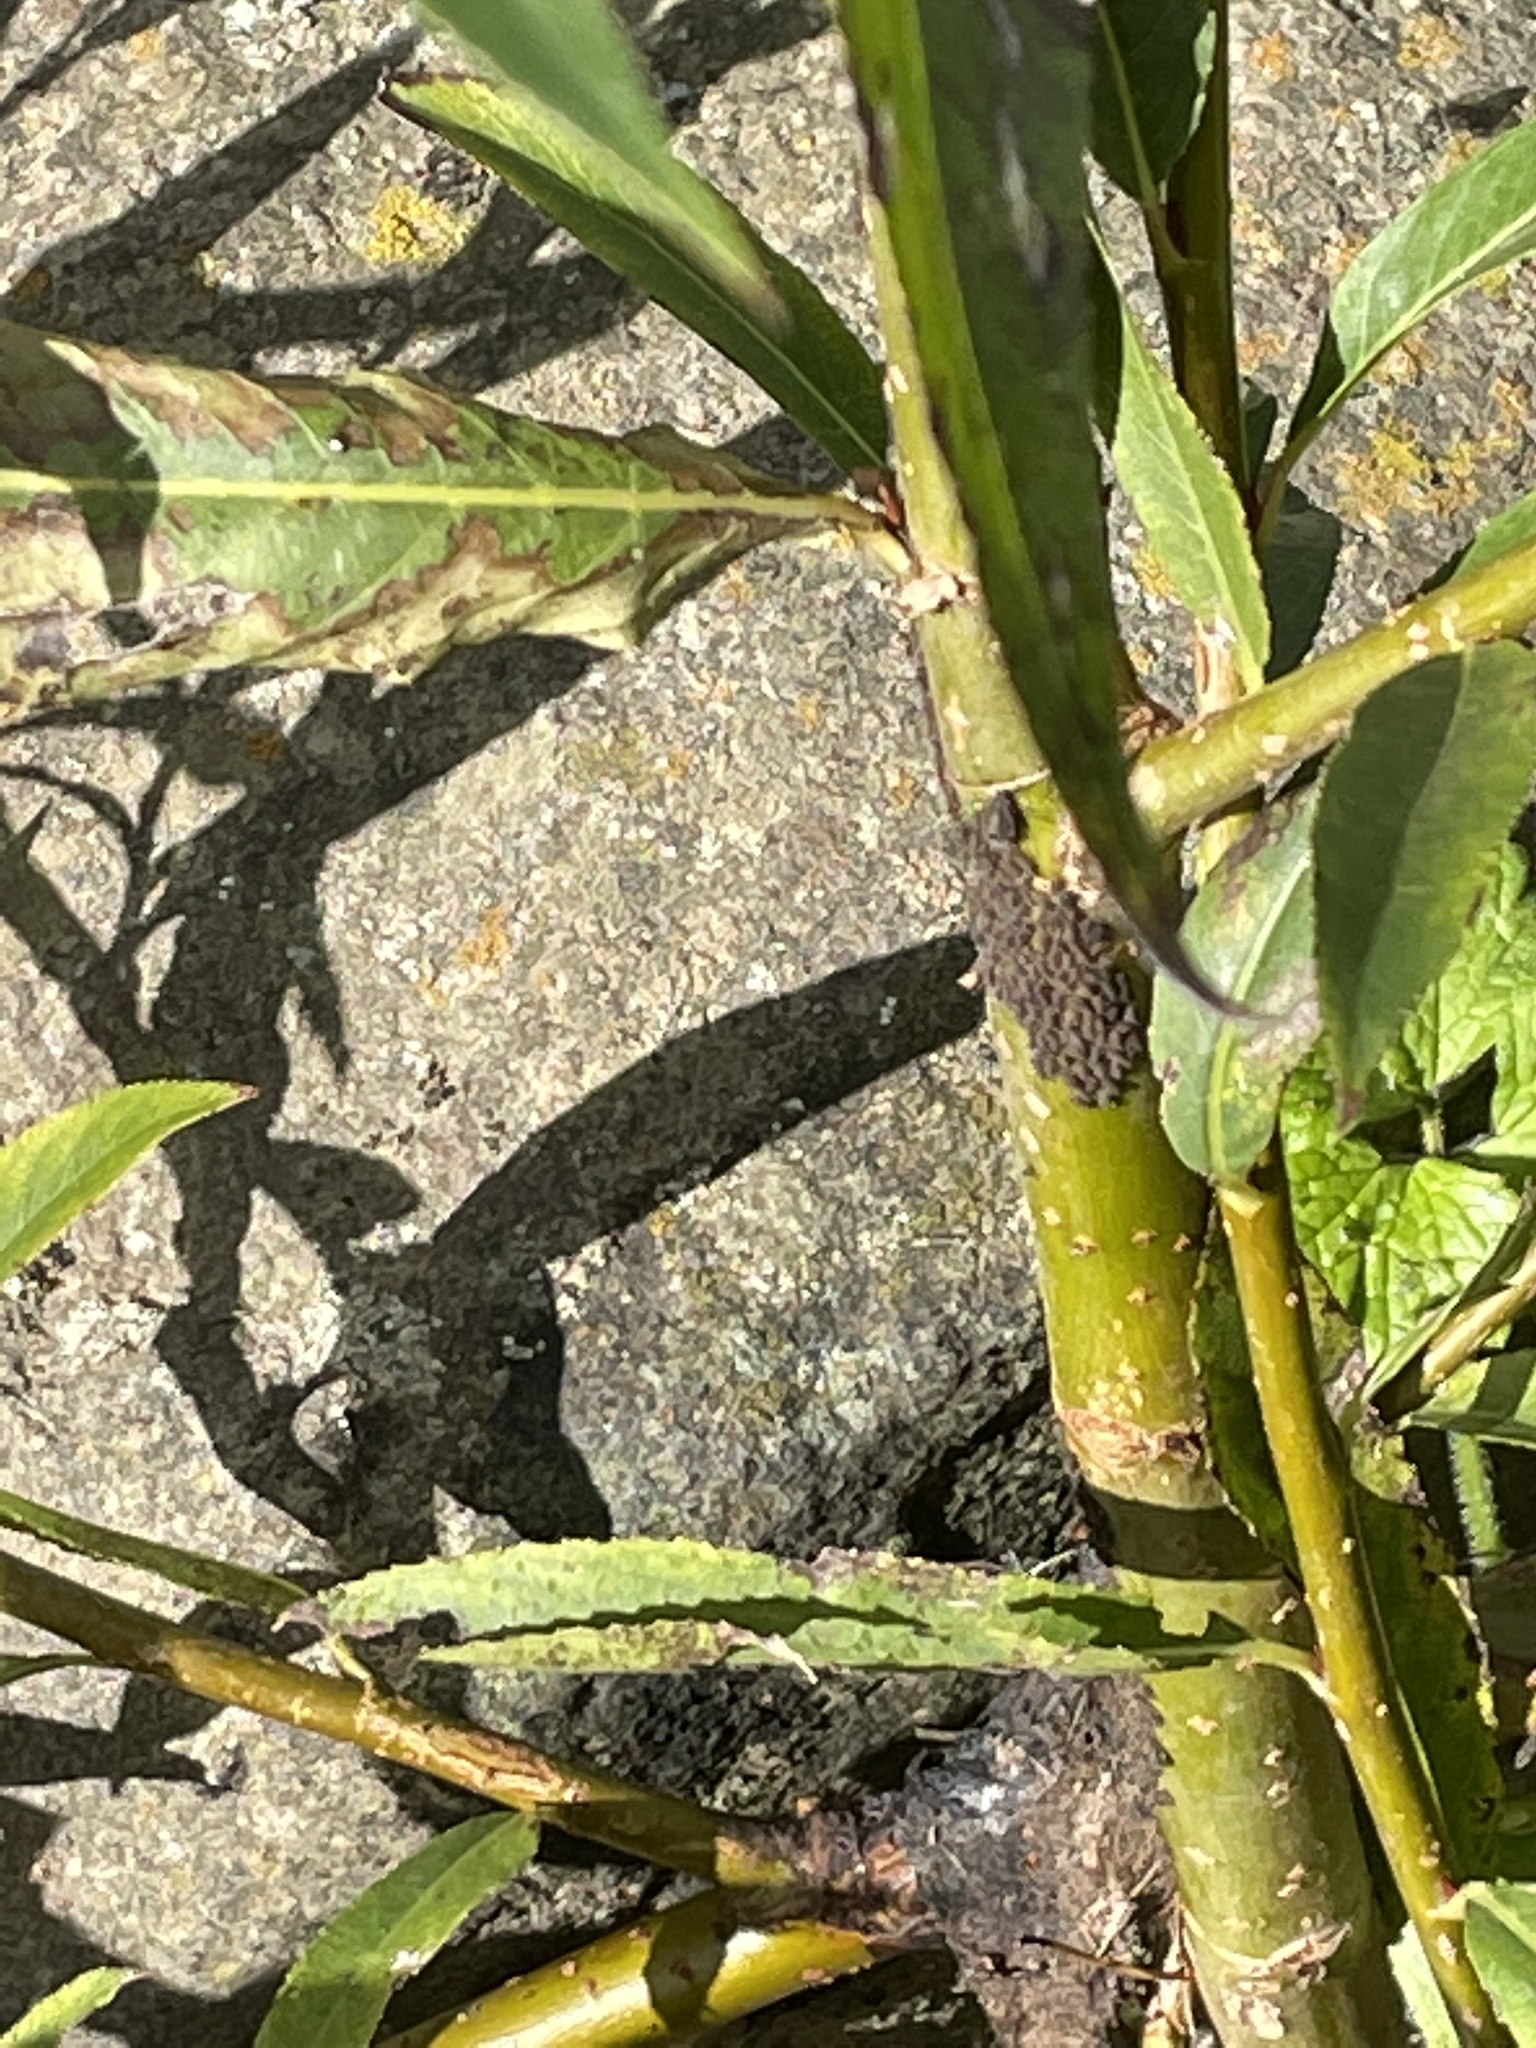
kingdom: Animalia
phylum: Arthropoda
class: Insecta
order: Hemiptera
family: Aphididae
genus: Tuberolachnus
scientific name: Tuberolachnus salignus
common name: Giant willow aphid
